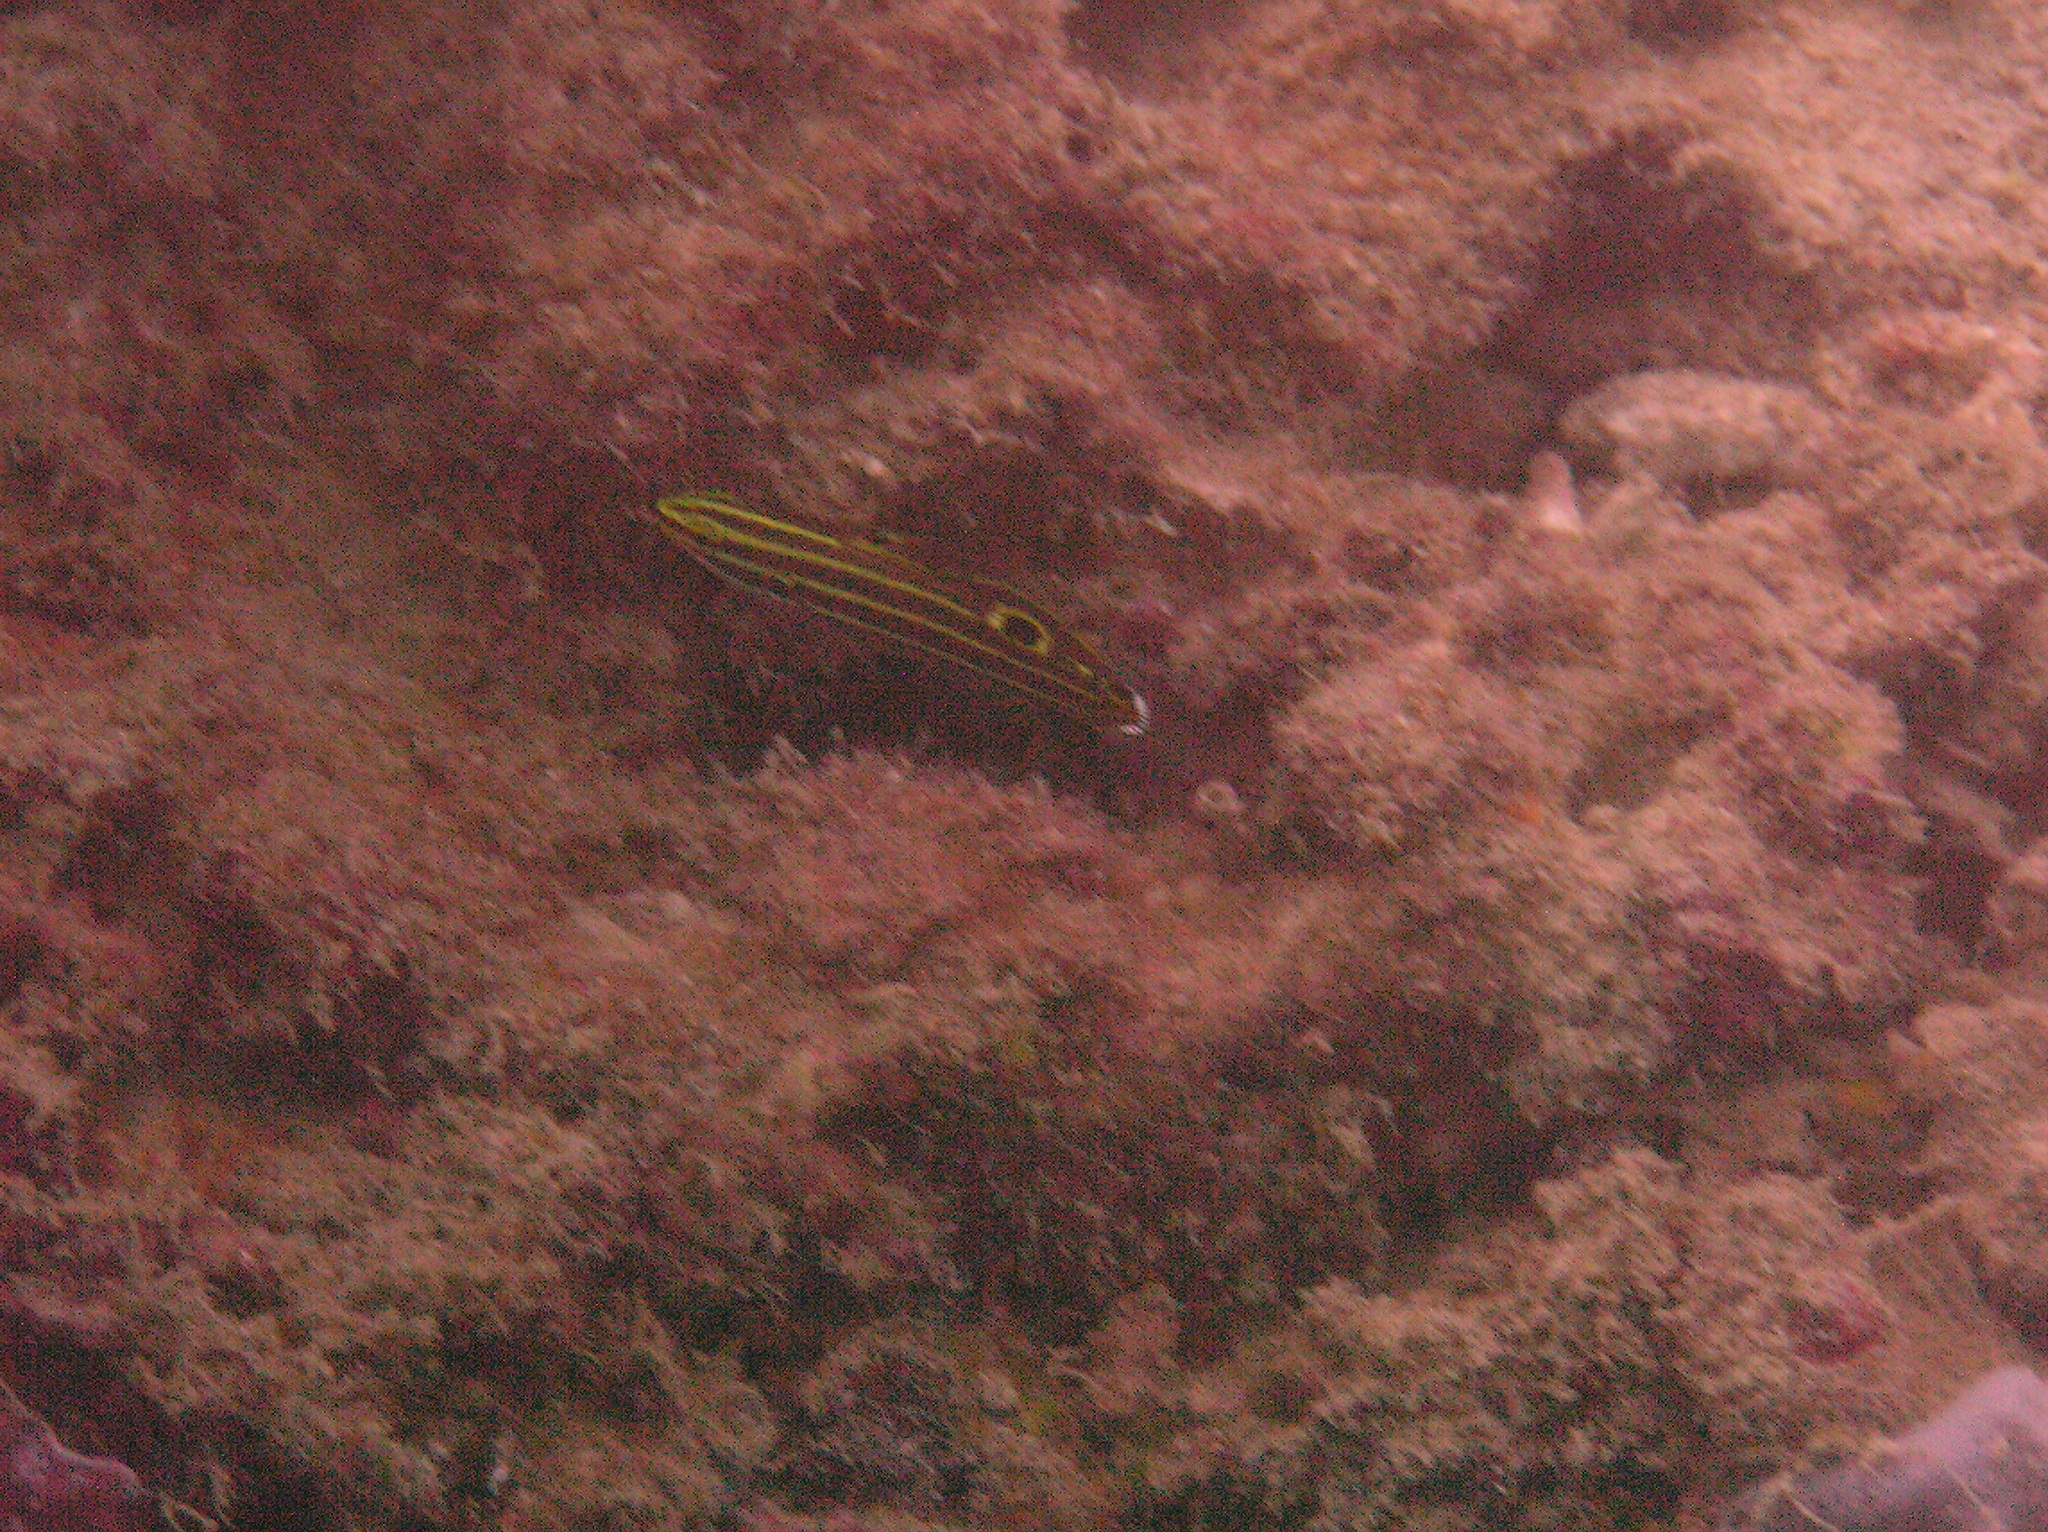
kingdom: Animalia
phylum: Chordata
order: Perciformes
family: Gobiidae
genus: Koumansetta
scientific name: Koumansetta hectori
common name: Hector's goby
